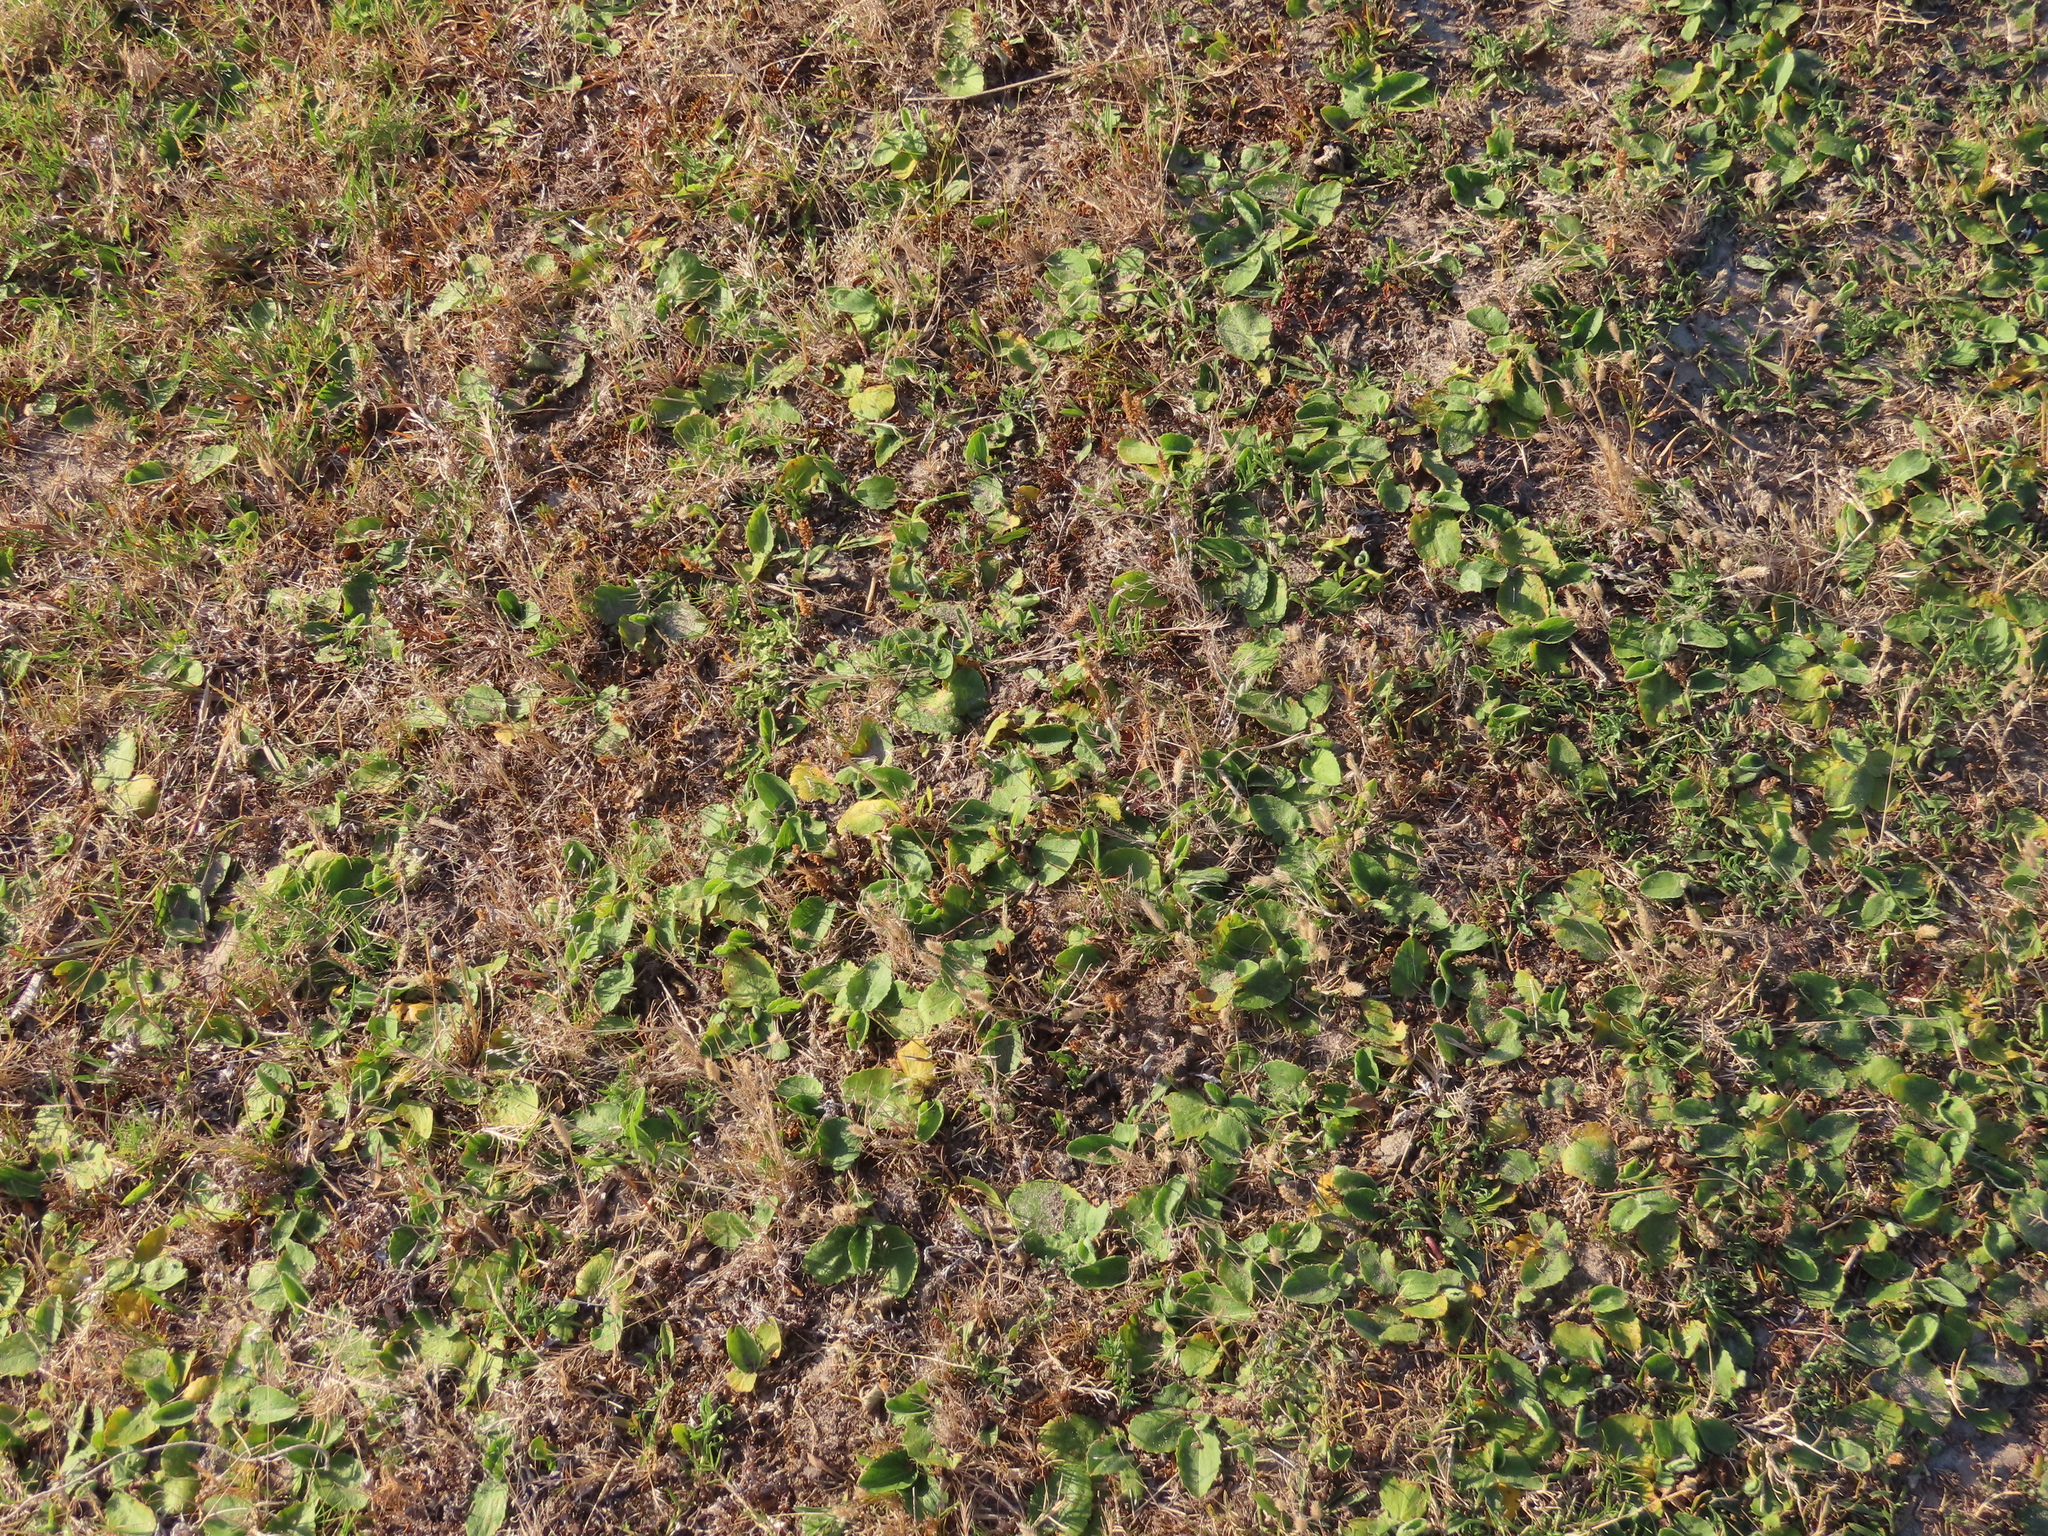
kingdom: Plantae
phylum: Tracheophyta
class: Magnoliopsida
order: Apiales
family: Apiaceae
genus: Centella
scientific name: Centella asiatica
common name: Spadeleaf
